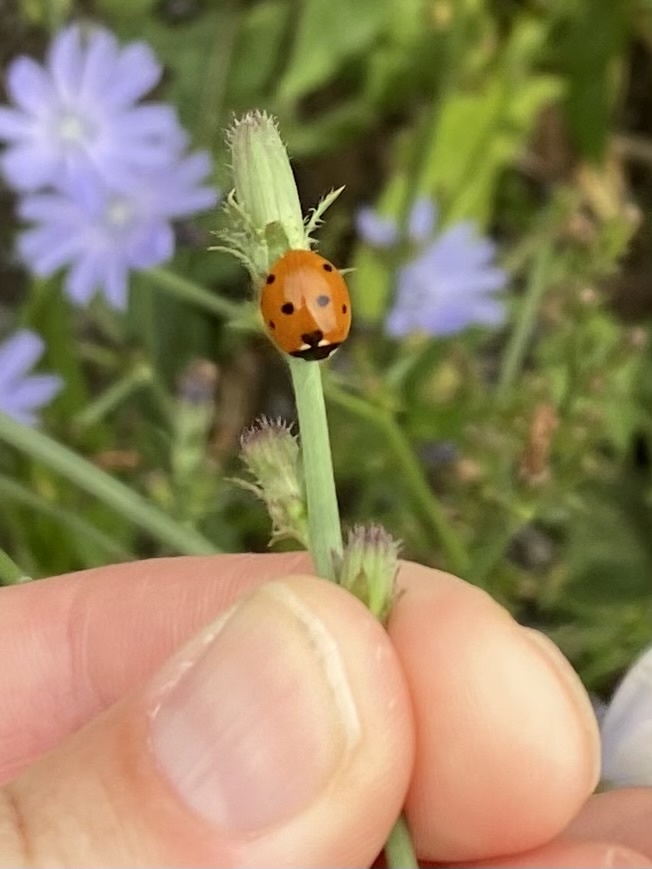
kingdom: Animalia
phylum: Arthropoda
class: Insecta
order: Coleoptera
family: Coccinellidae
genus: Coccinella
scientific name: Coccinella septempunctata
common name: Sevenspotted lady beetle
